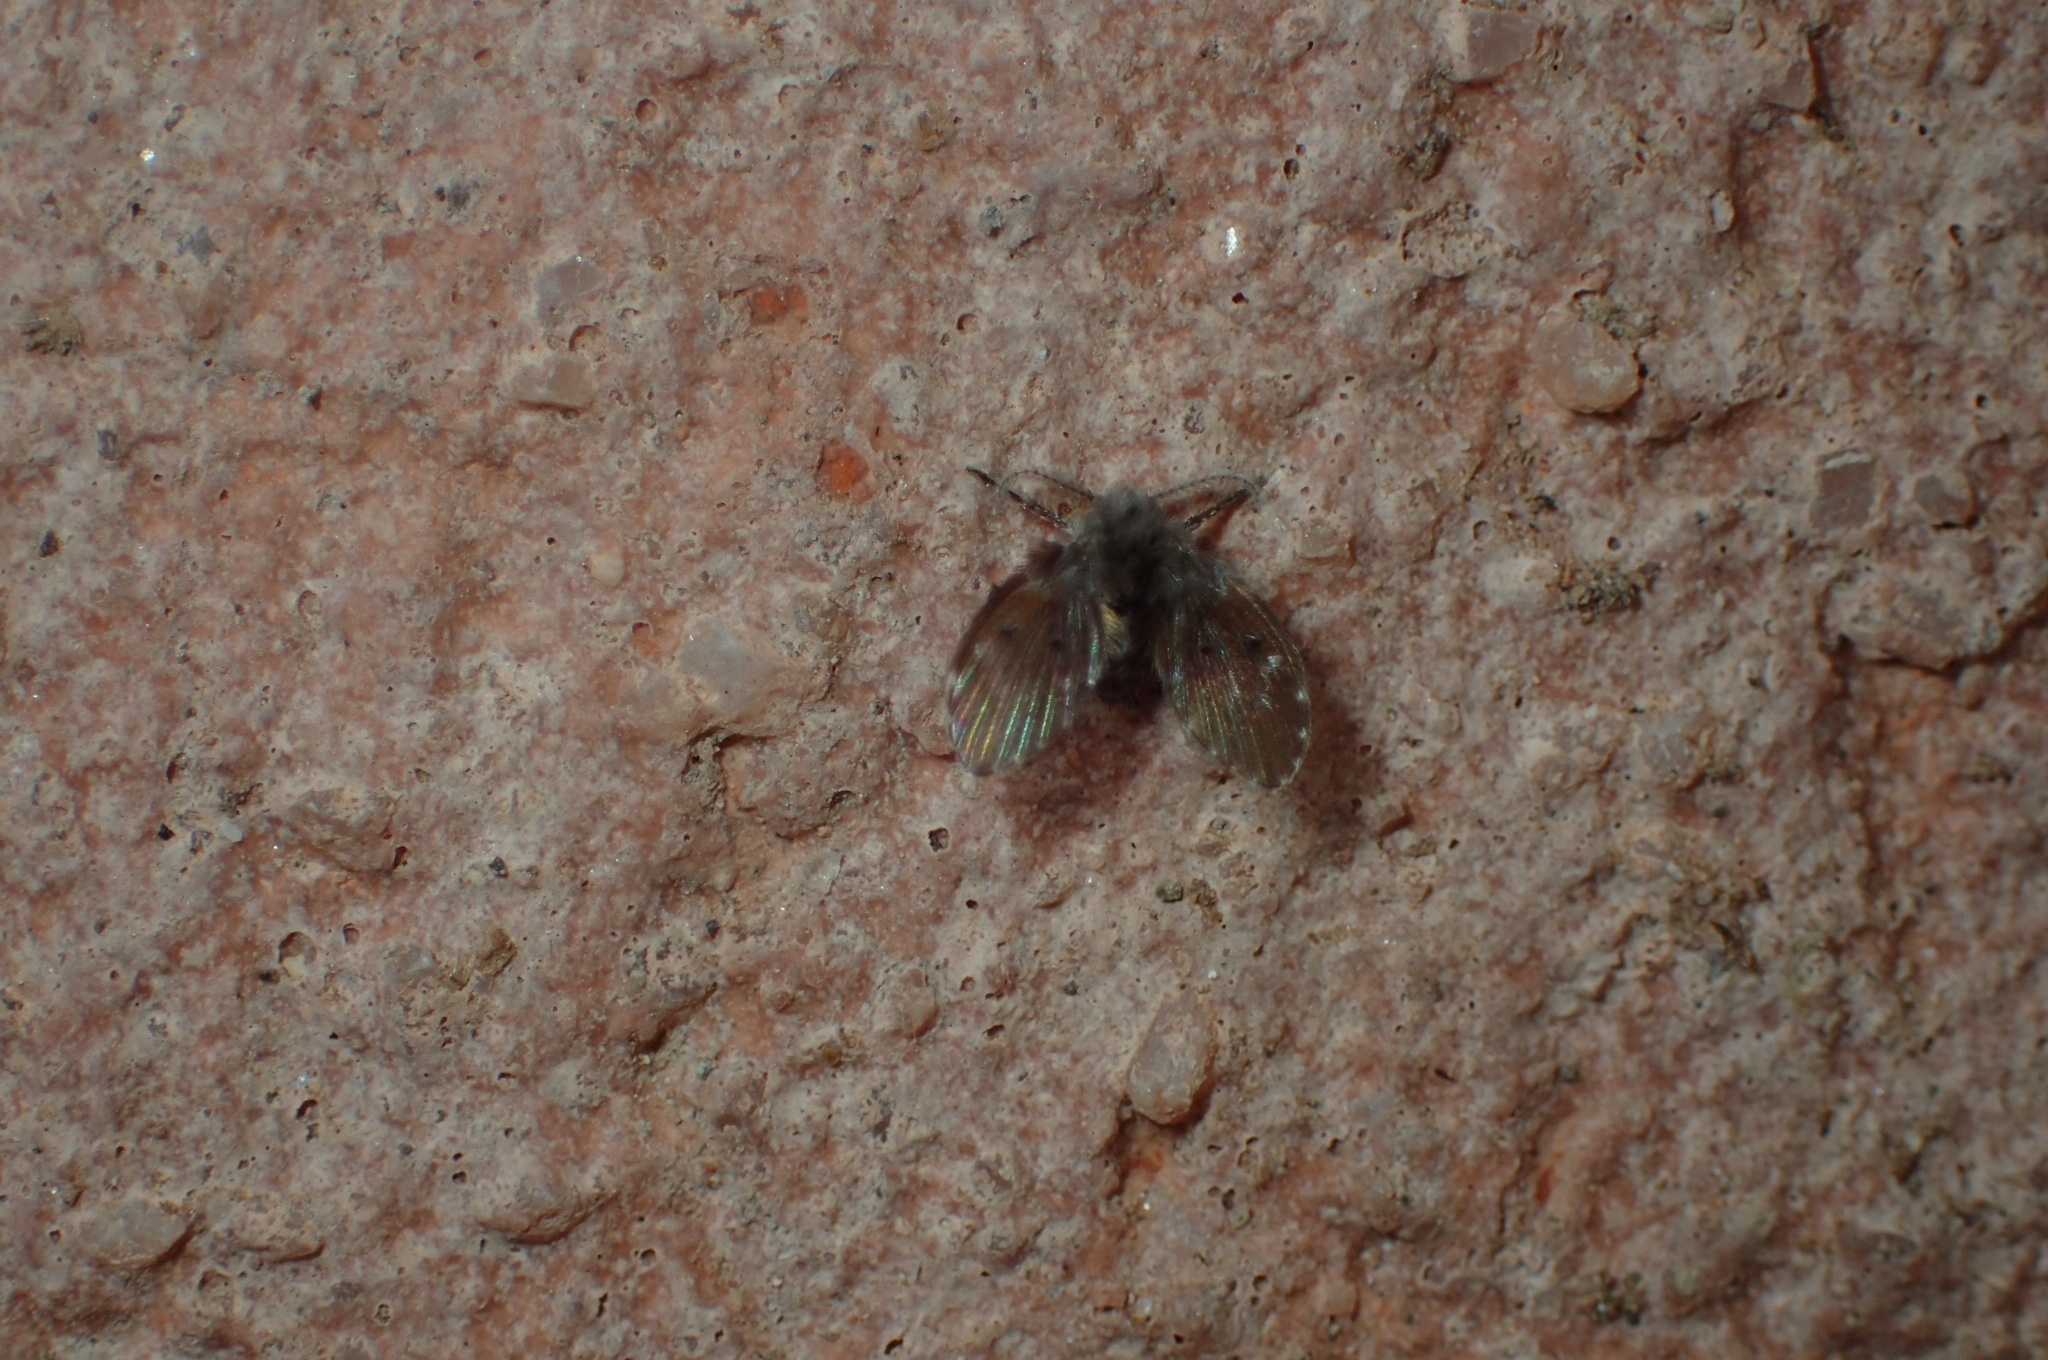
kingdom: Animalia
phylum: Arthropoda
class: Insecta
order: Diptera
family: Psychodidae
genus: Clogmia
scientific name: Clogmia albipunctatus
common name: White-spotted moth fly
